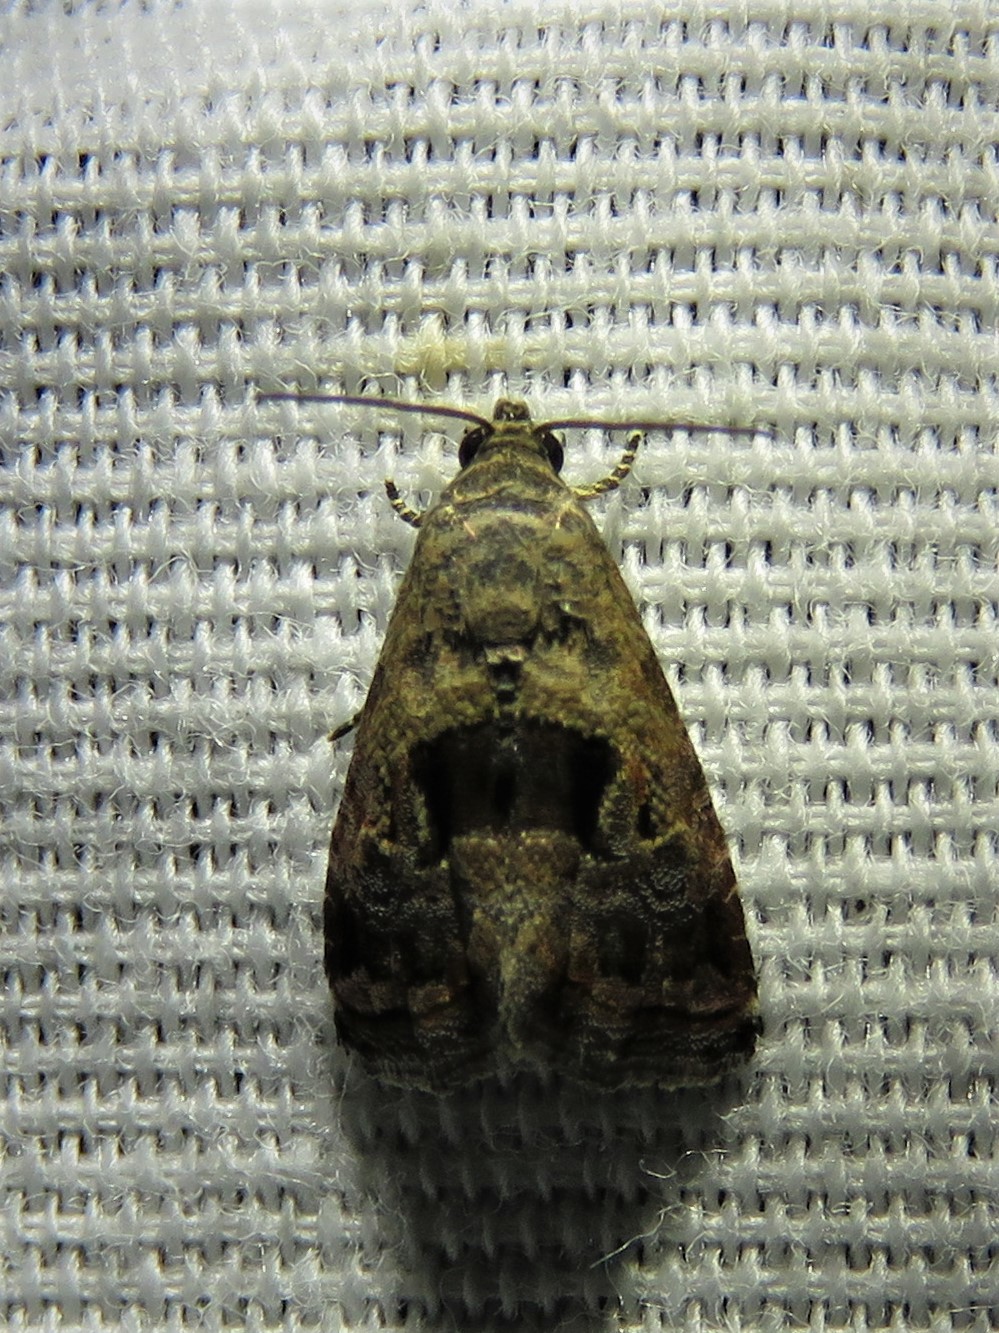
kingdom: Animalia
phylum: Arthropoda
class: Insecta
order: Lepidoptera
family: Noctuidae
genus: Tripudia
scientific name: Tripudia quadrifera
